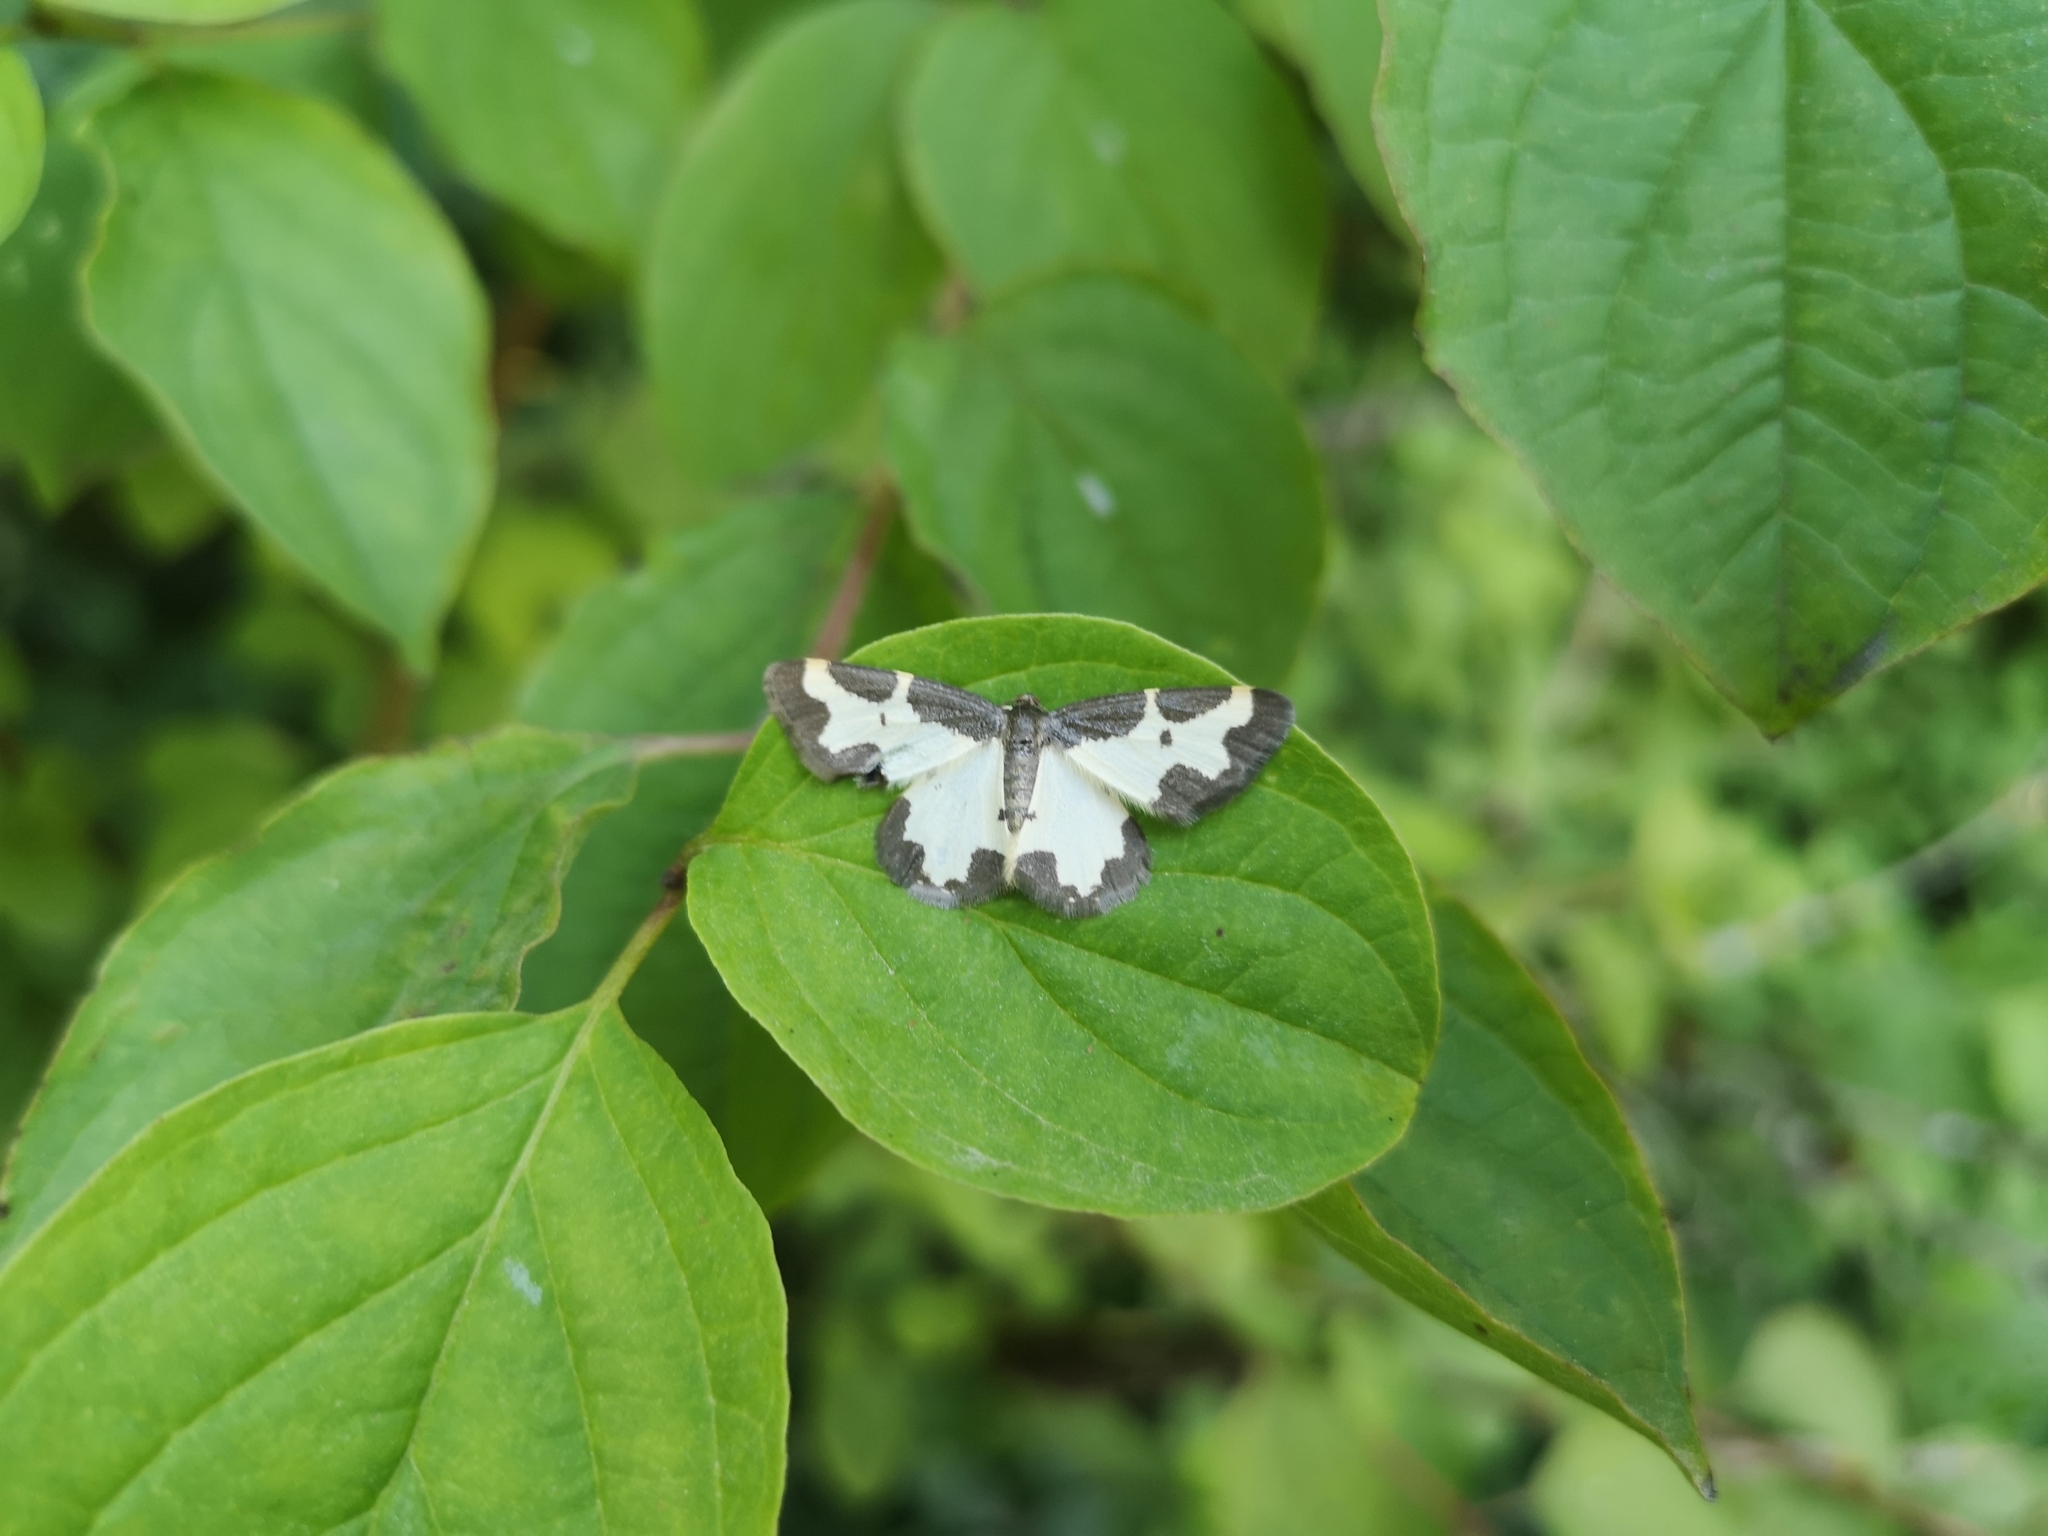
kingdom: Animalia
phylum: Arthropoda
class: Insecta
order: Lepidoptera
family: Geometridae
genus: Lomaspilis
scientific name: Lomaspilis marginata
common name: Clouded border
